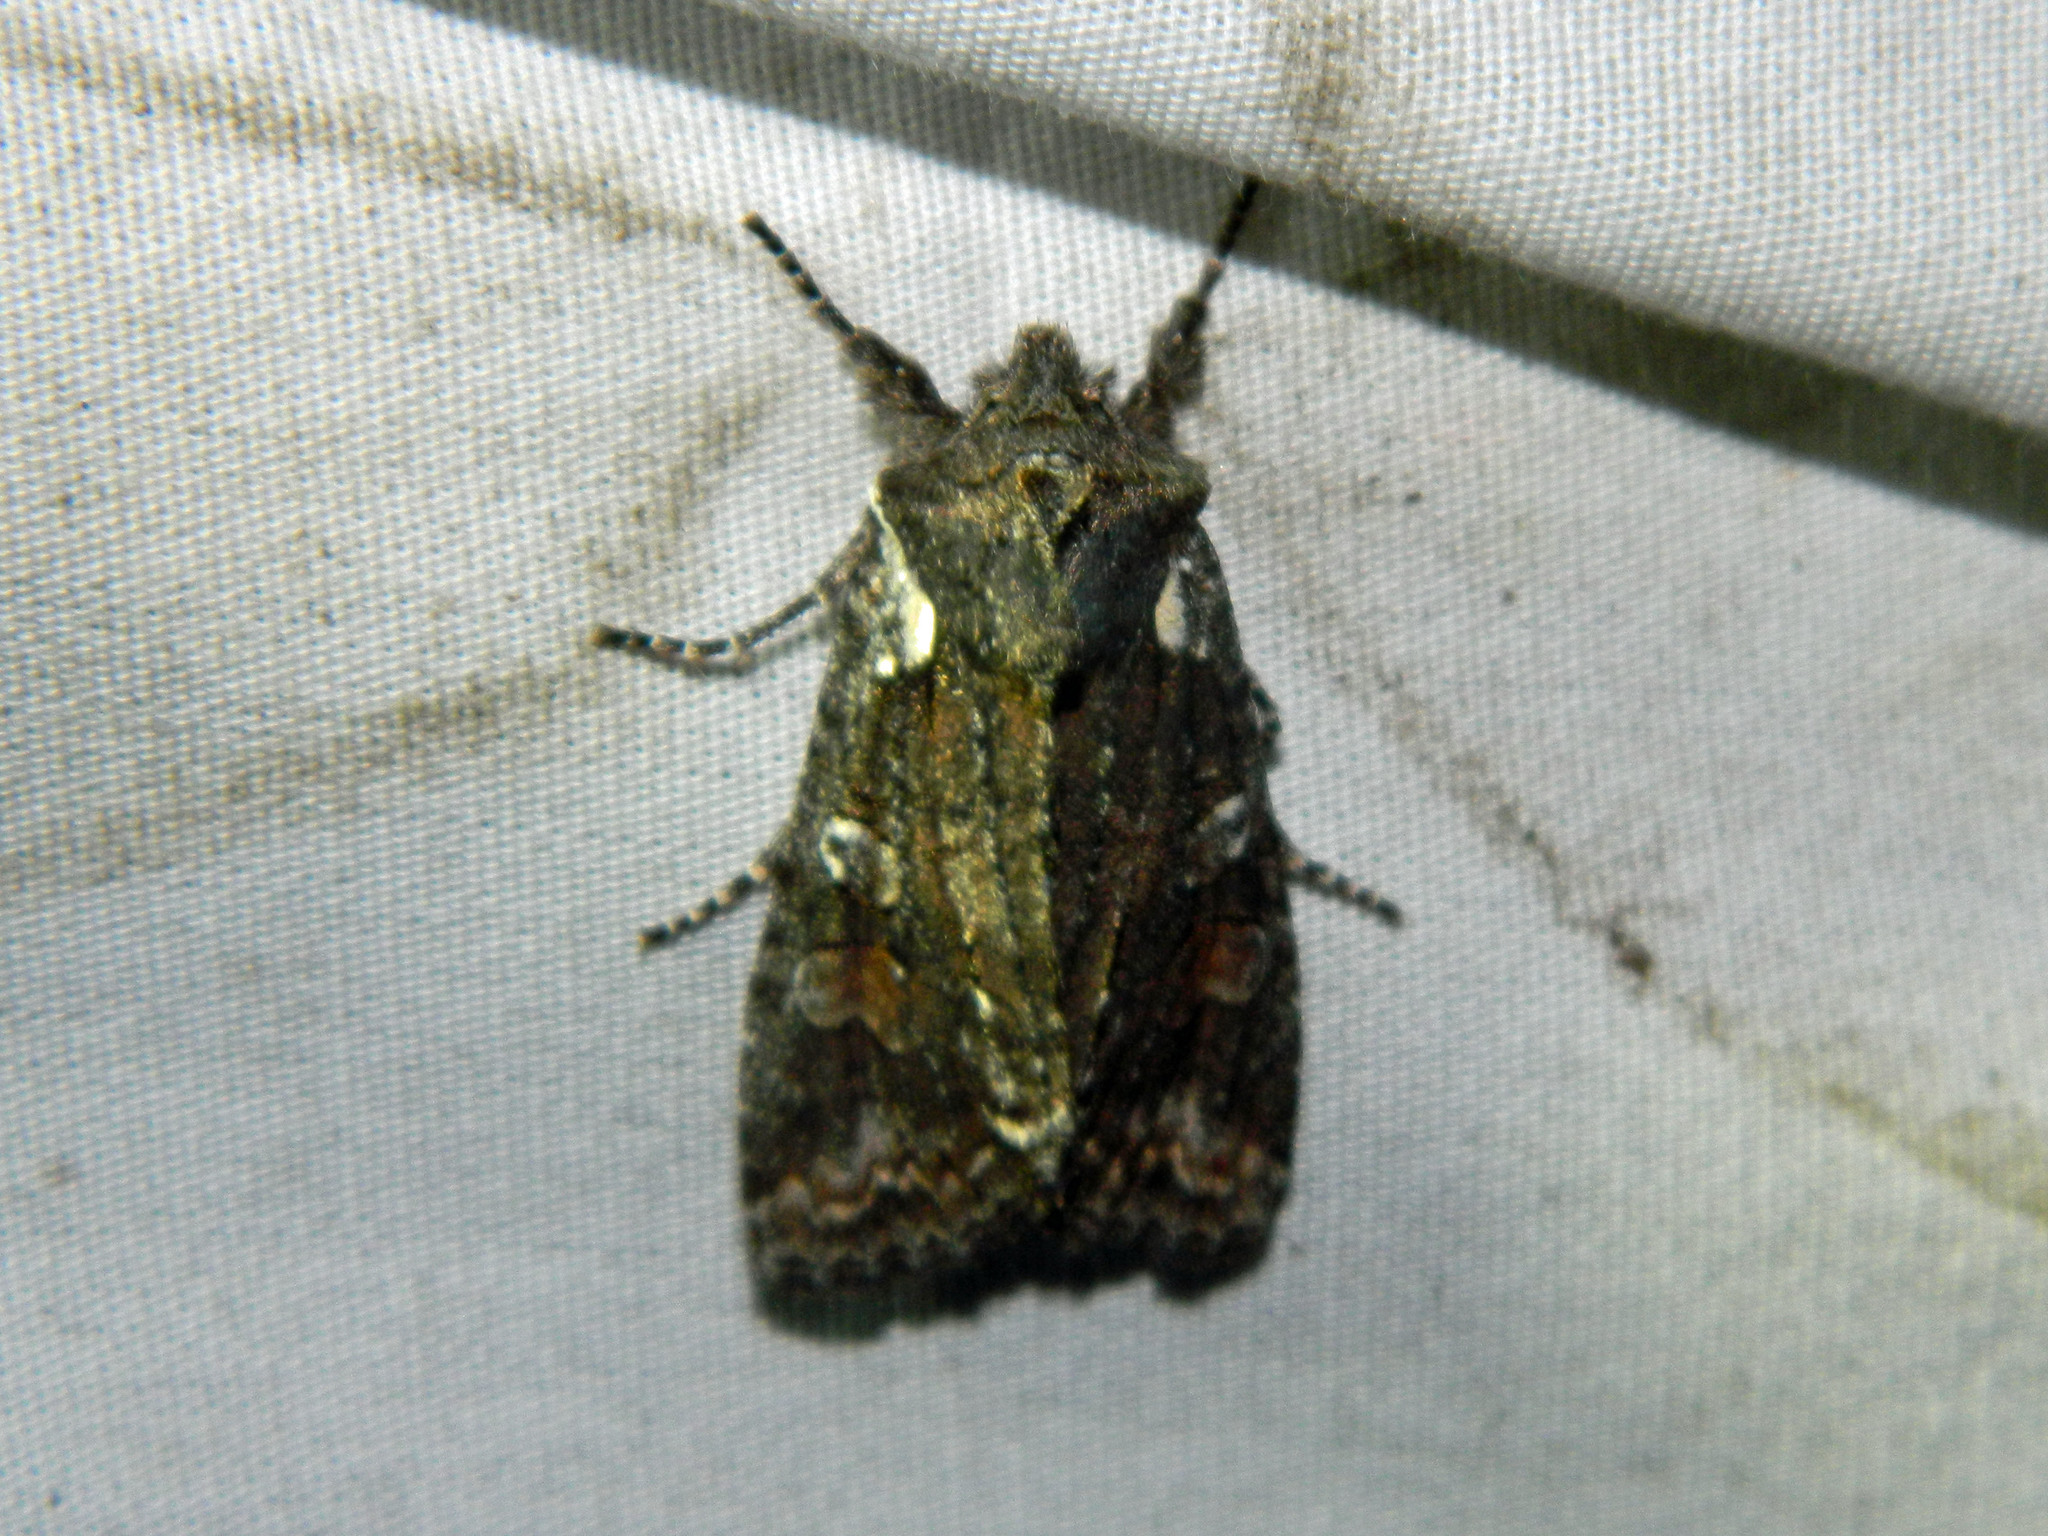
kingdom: Animalia
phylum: Arthropoda
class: Insecta
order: Lepidoptera
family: Noctuidae
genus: Lithophane
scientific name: Lithophane pexata
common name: Plush-naped pinion moth
